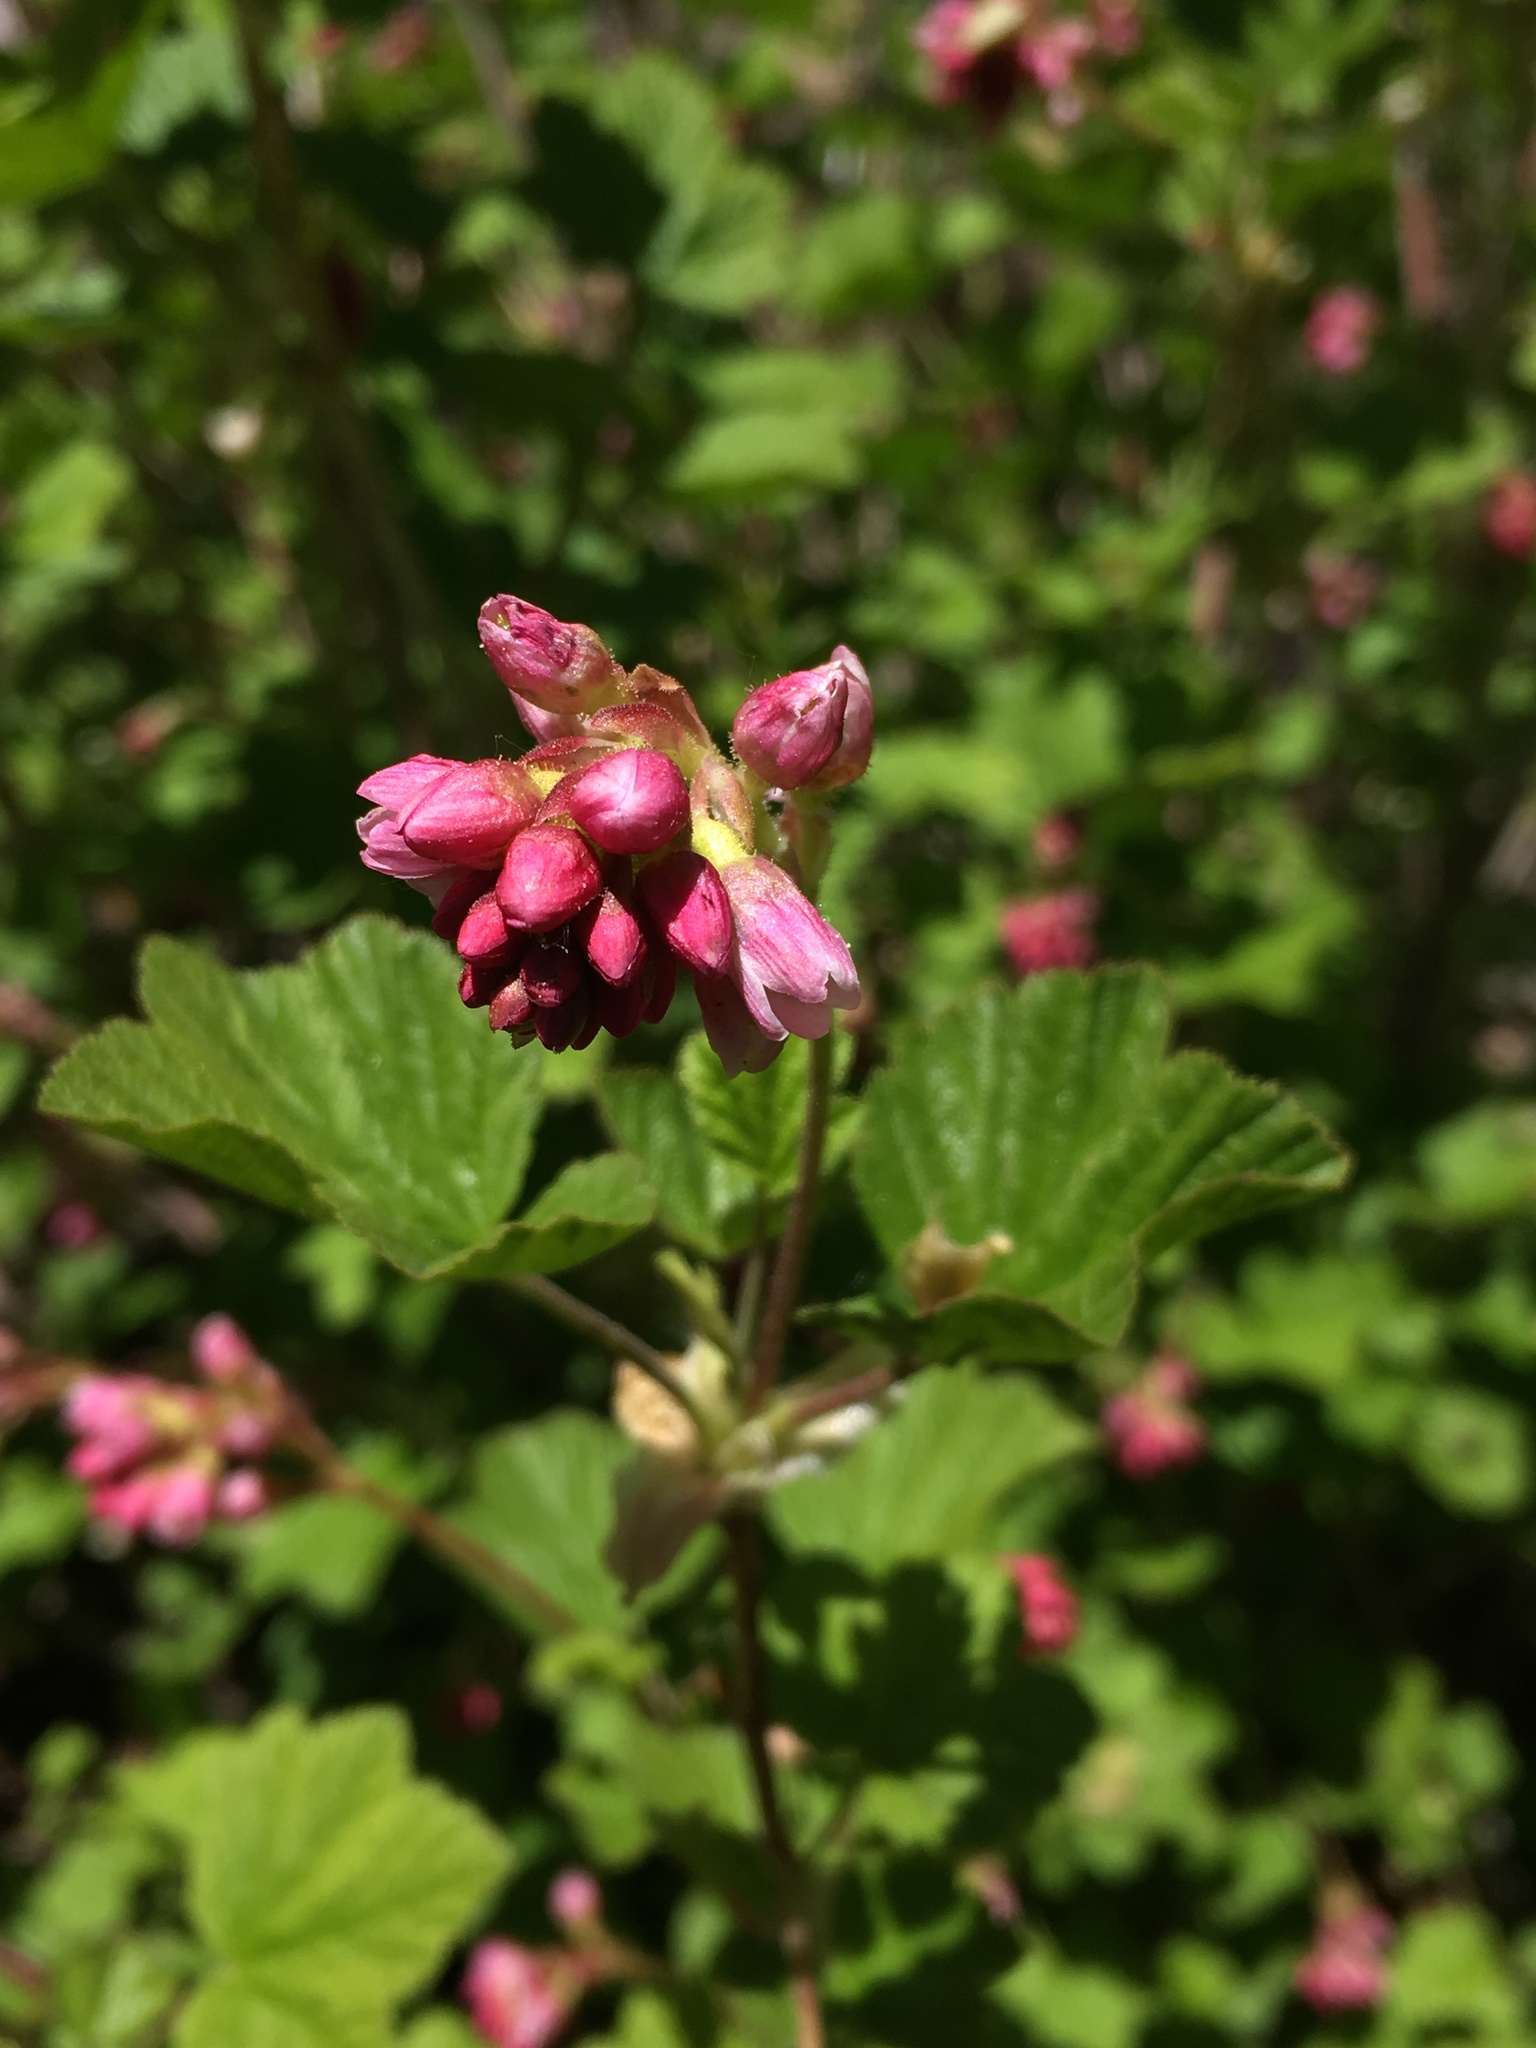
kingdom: Plantae
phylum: Tracheophyta
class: Magnoliopsida
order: Saxifragales
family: Grossulariaceae
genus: Ribes
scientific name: Ribes nevadense
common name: Mountain pink currant
